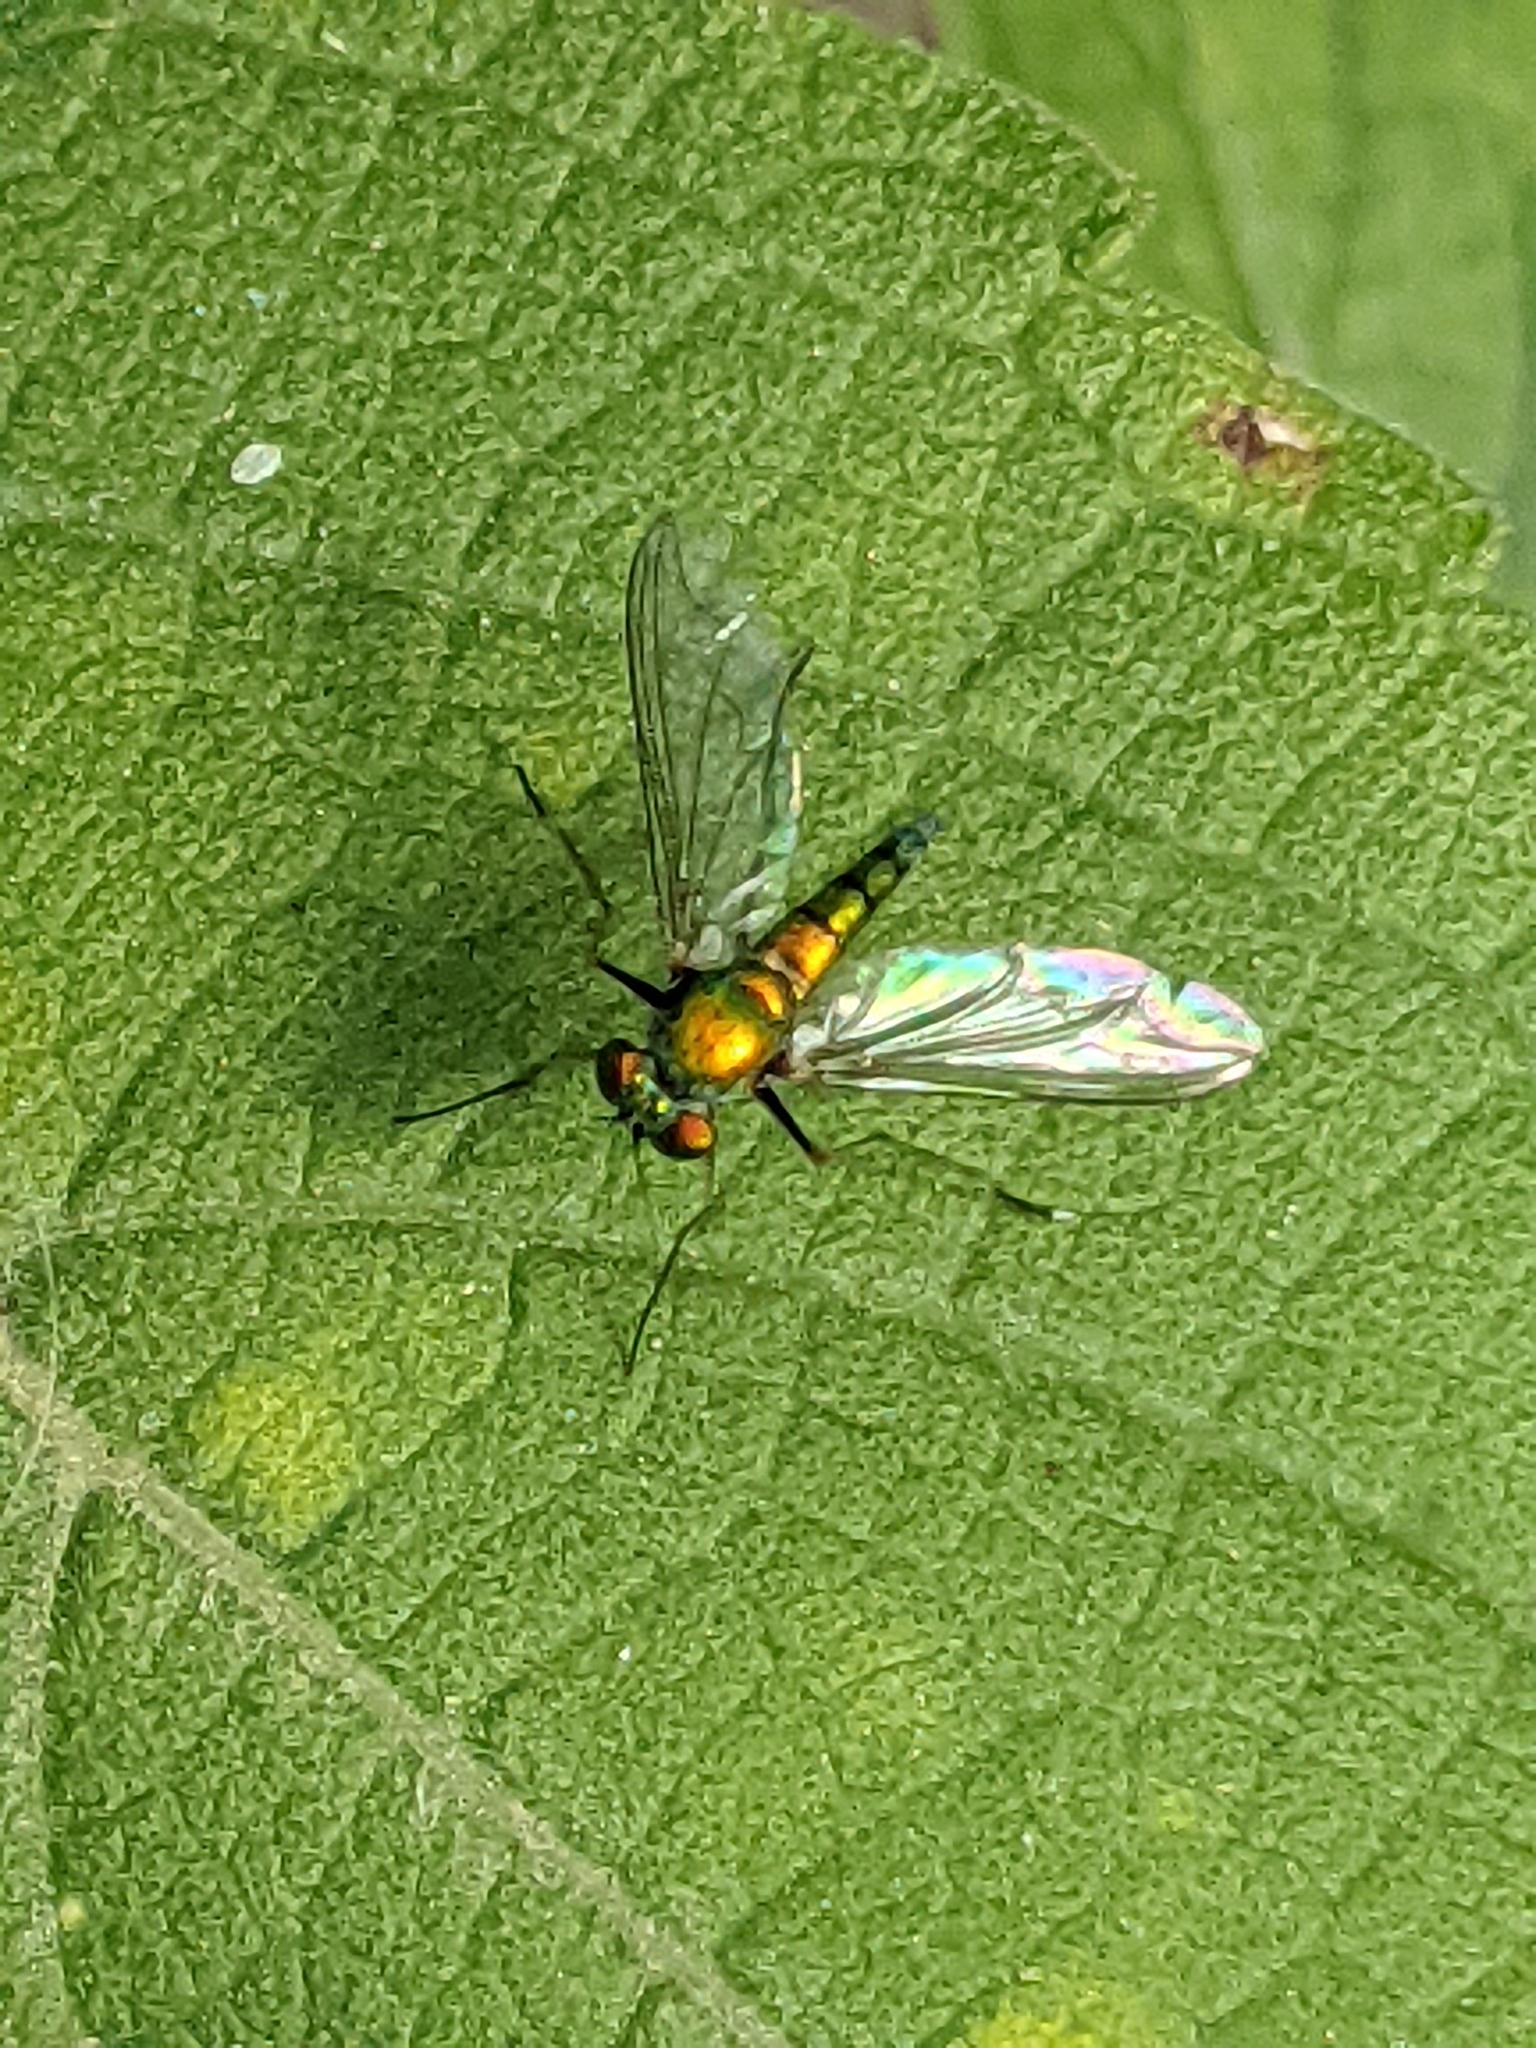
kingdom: Animalia
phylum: Arthropoda
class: Insecta
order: Diptera
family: Dolichopodidae
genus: Chrysosoma
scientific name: Chrysosoma leucopogon
